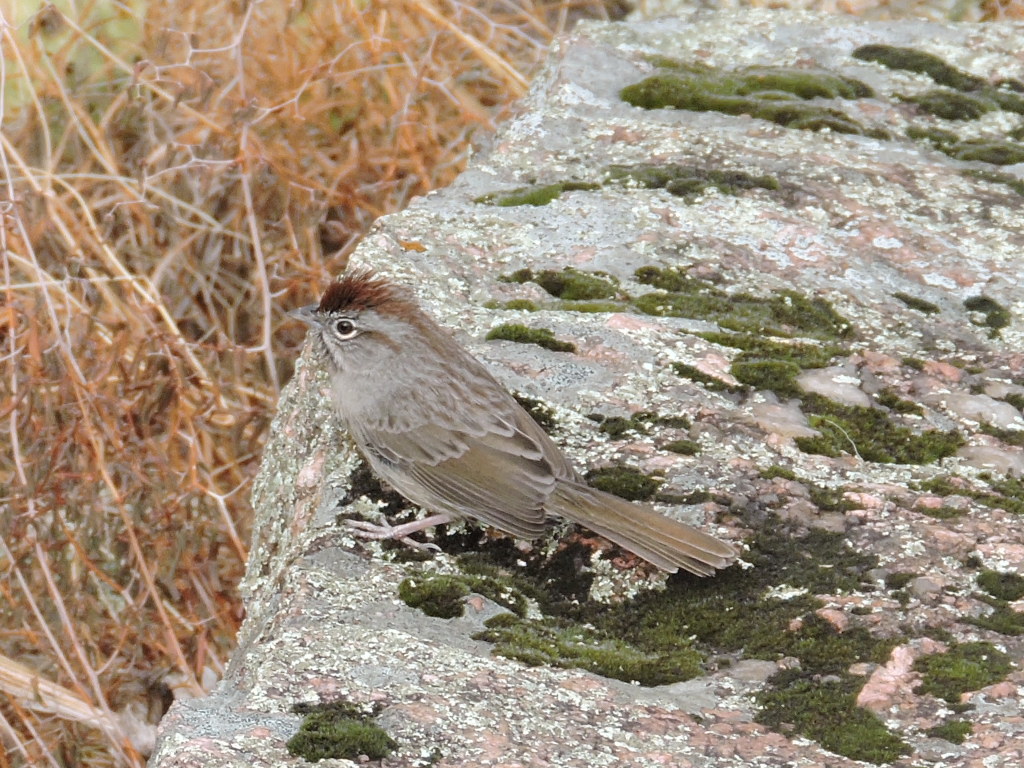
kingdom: Animalia
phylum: Chordata
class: Aves
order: Passeriformes
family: Passerellidae
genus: Aimophila
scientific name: Aimophila ruficeps
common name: Rufous-crowned sparrow
